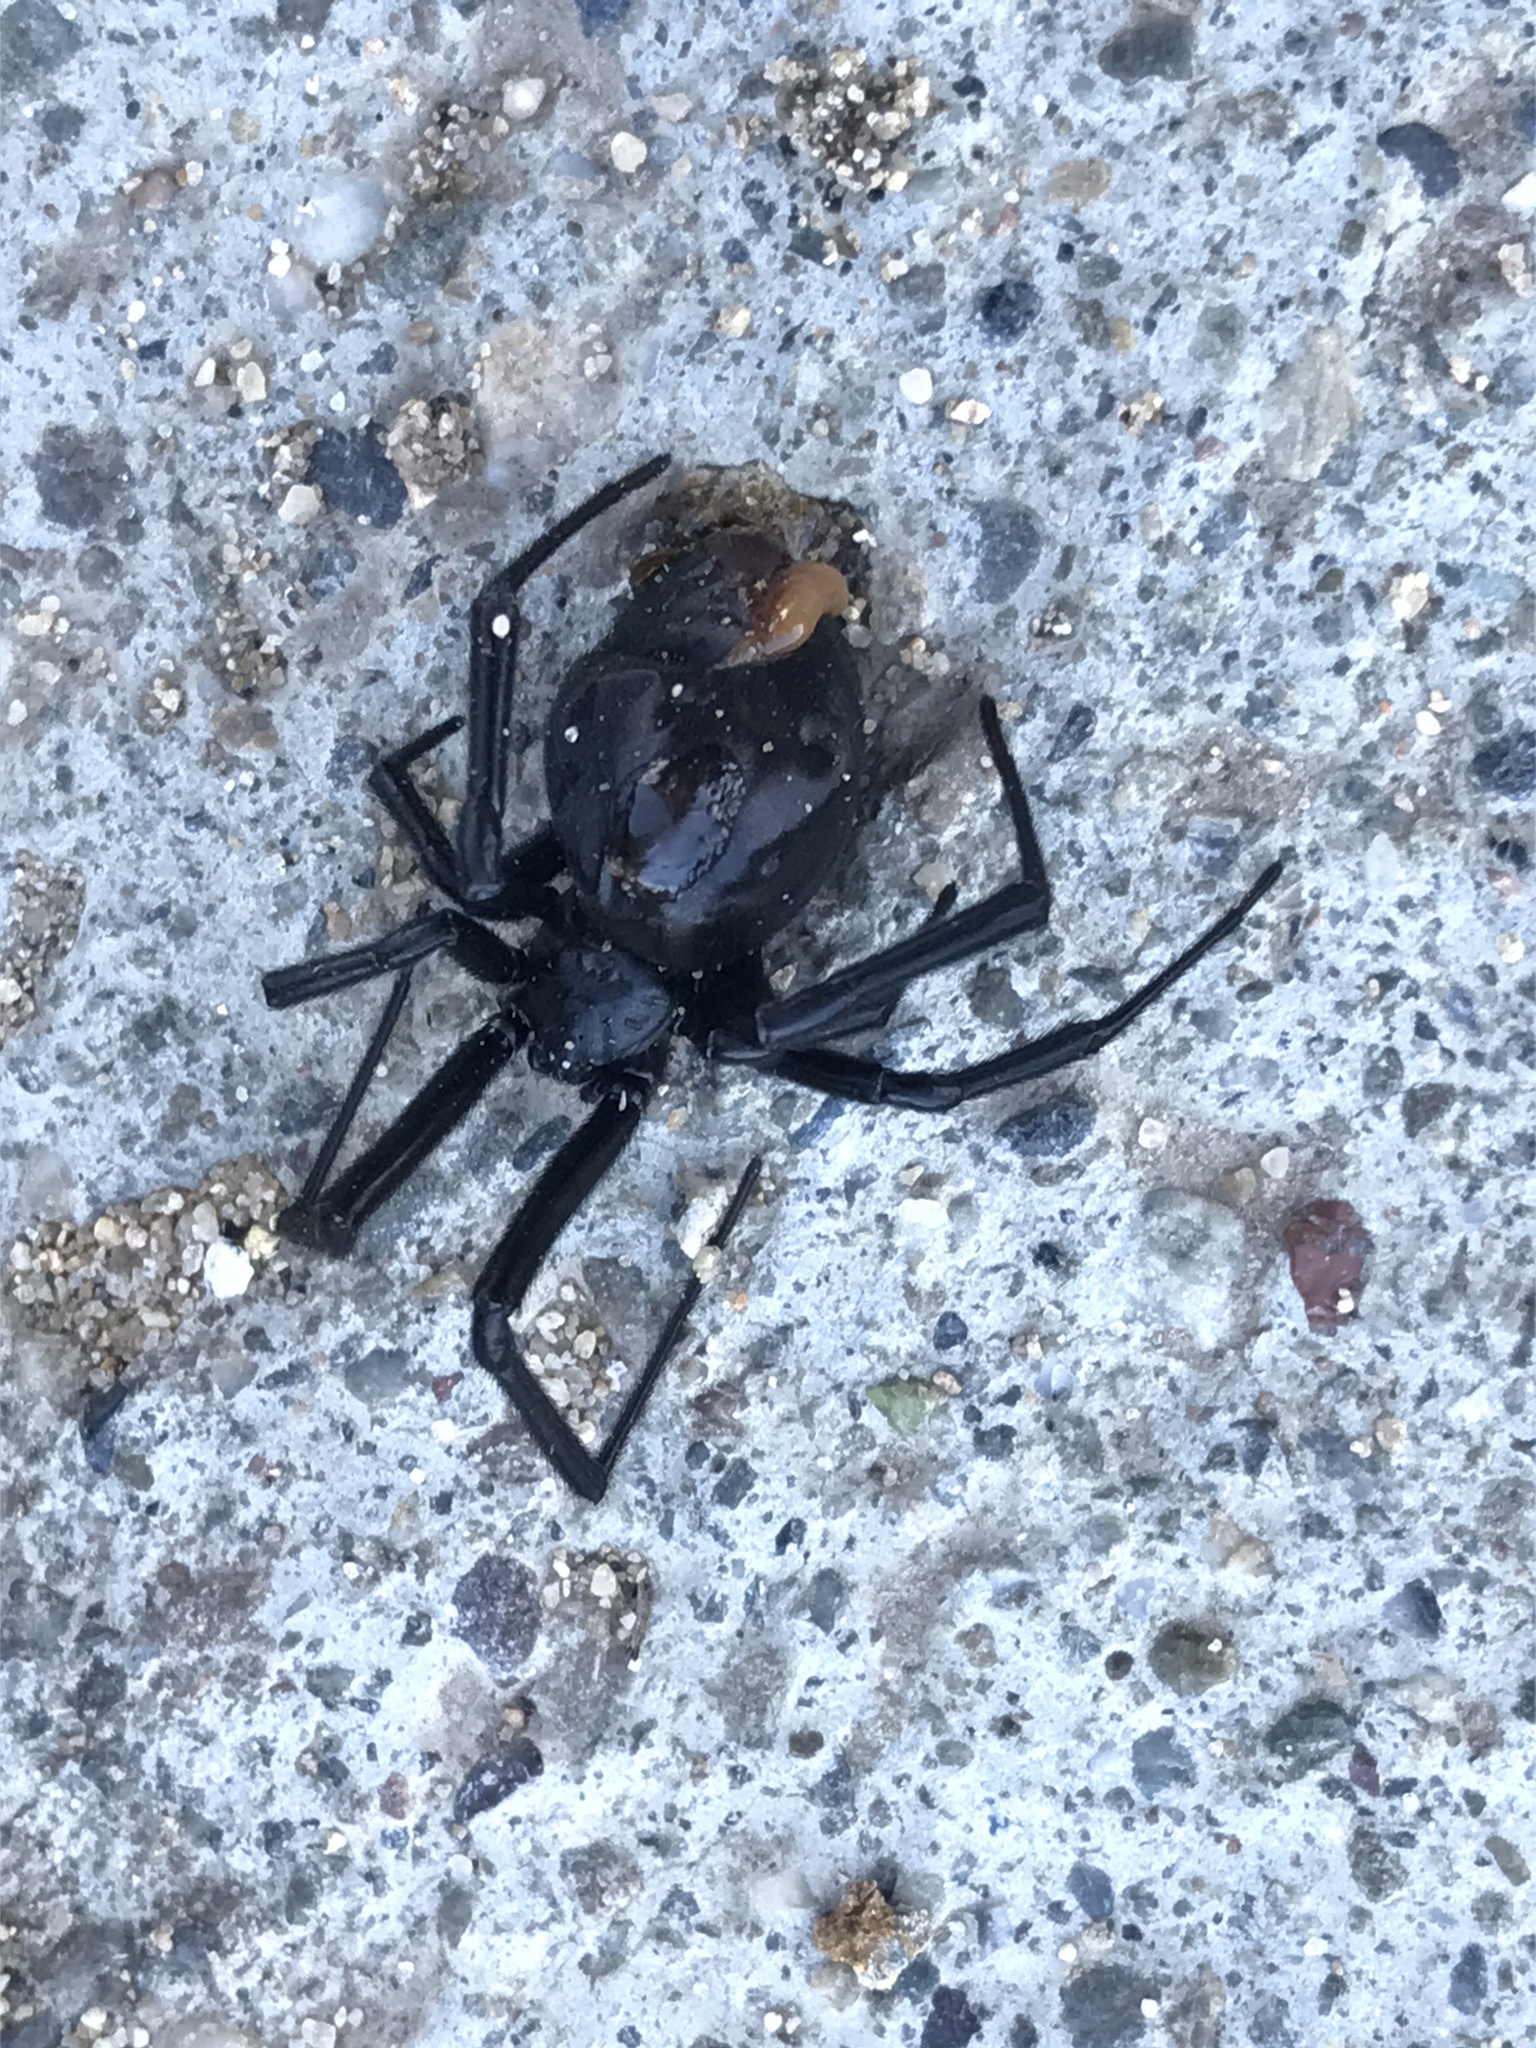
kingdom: Animalia
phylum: Arthropoda
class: Arachnida
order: Araneae
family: Theridiidae
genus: Latrodectus
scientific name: Latrodectus hesperus
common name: Western black widow
